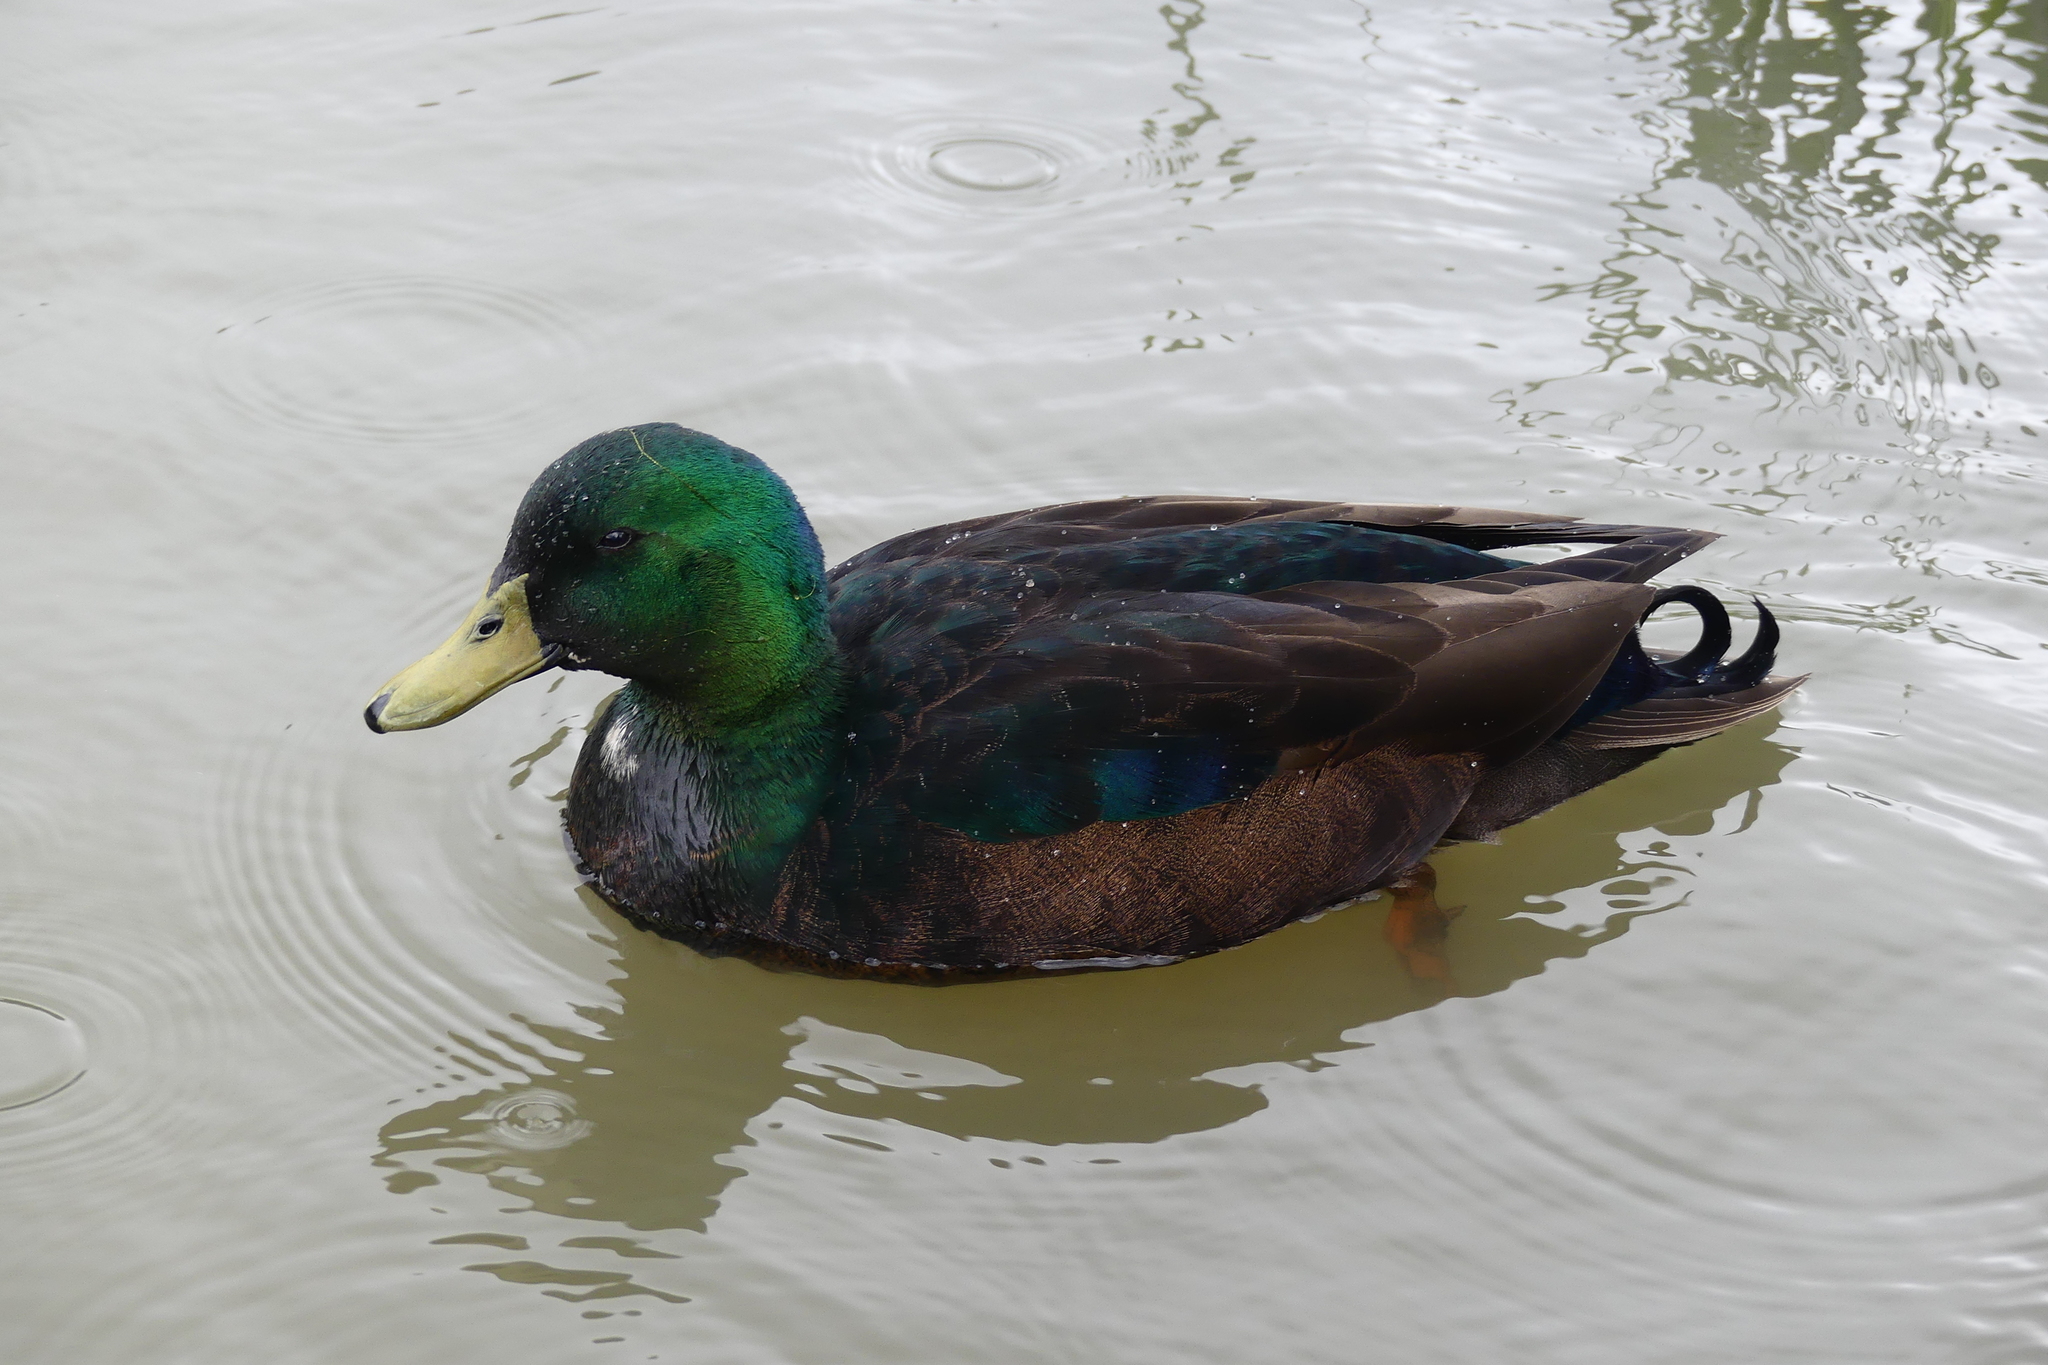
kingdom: Animalia
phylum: Chordata
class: Aves
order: Anseriformes
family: Anatidae
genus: Anas
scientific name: Anas platyrhynchos
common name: Mallard
